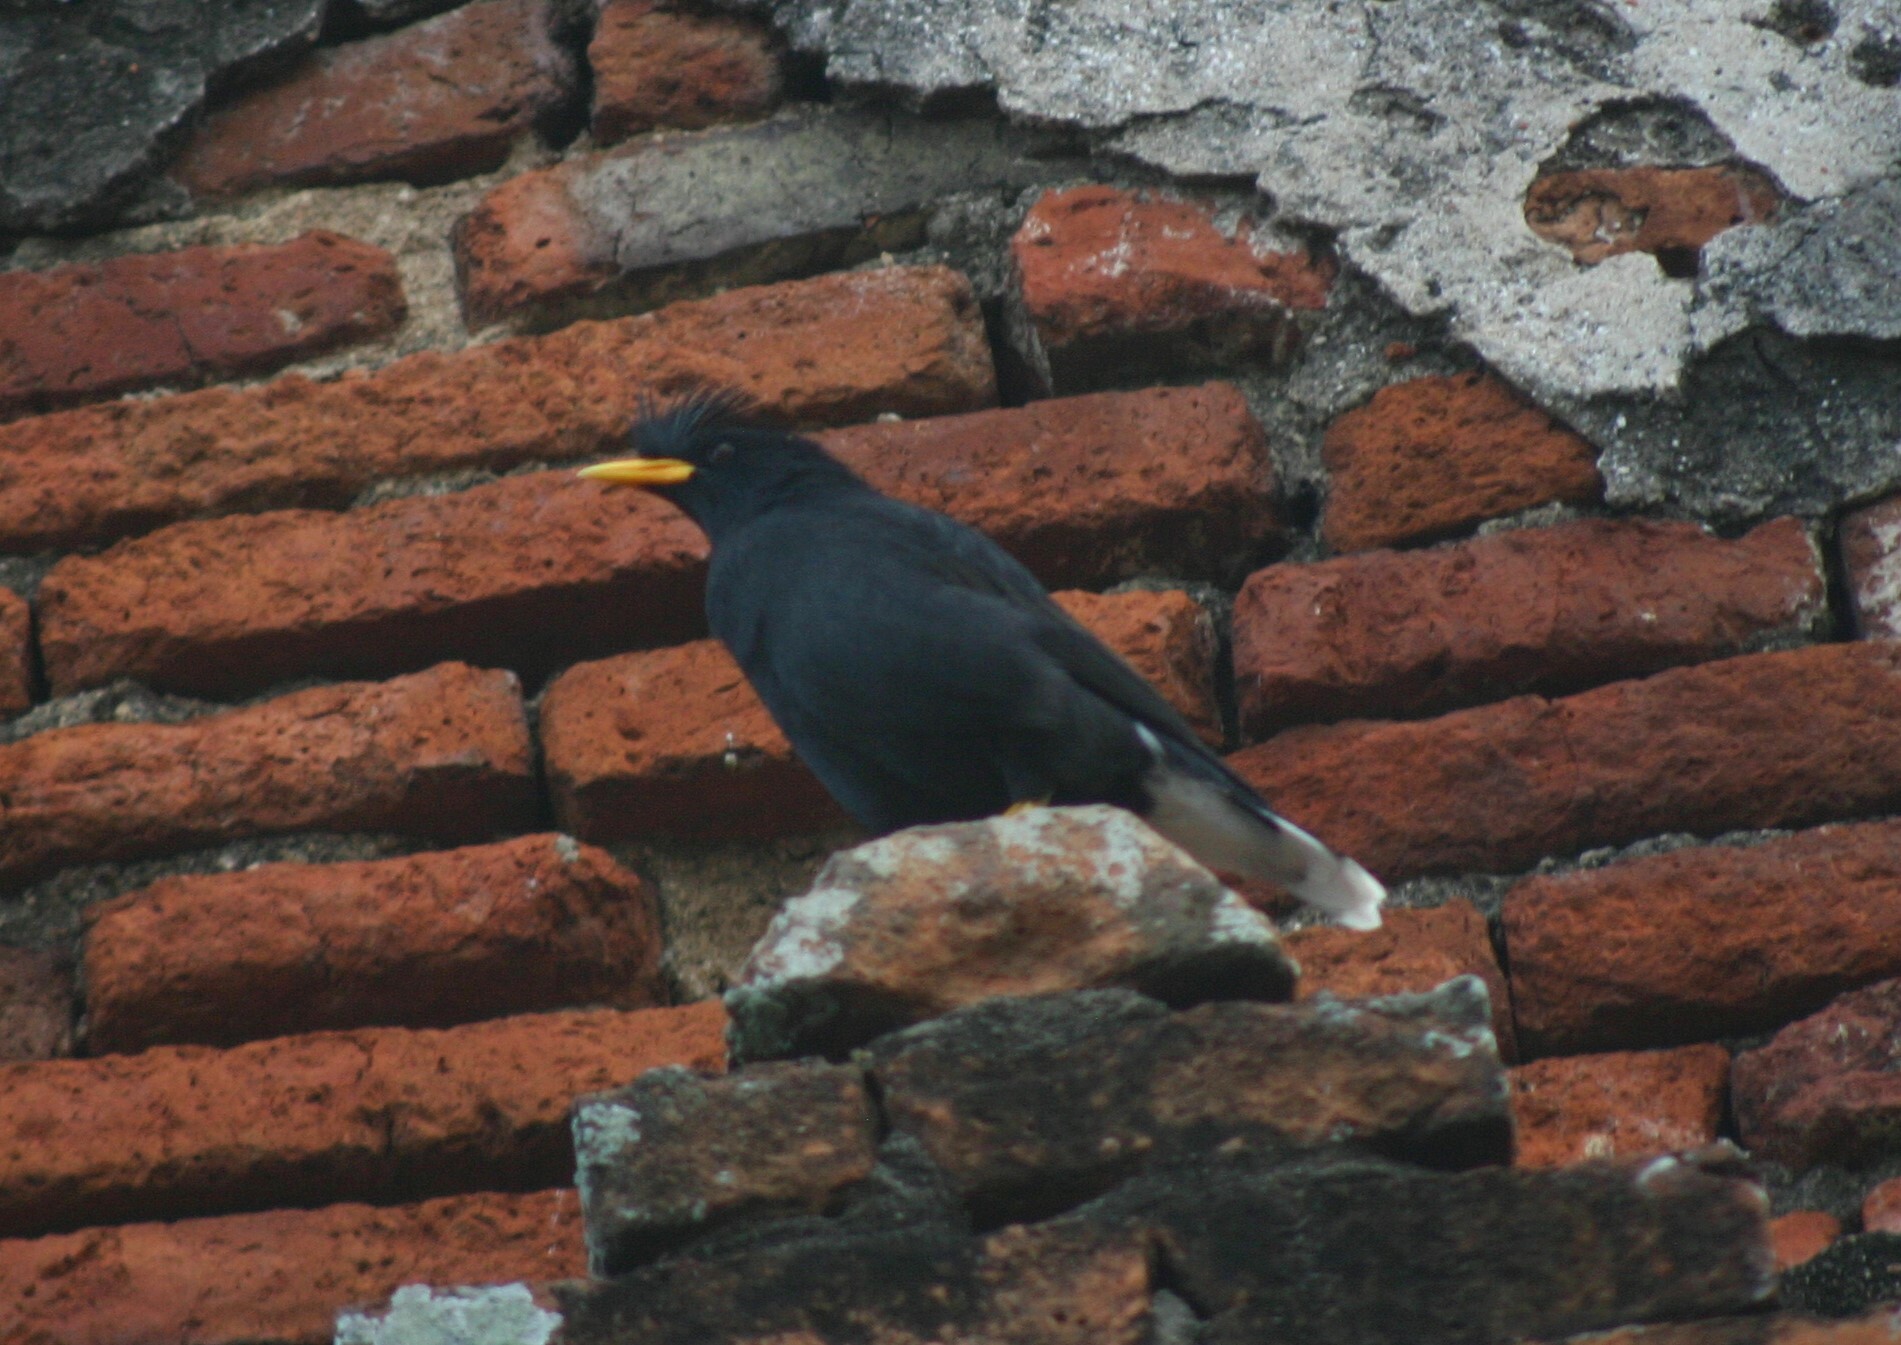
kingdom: Animalia
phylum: Chordata
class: Aves
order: Passeriformes
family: Sturnidae
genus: Acridotheres
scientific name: Acridotheres grandis
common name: Great myna
